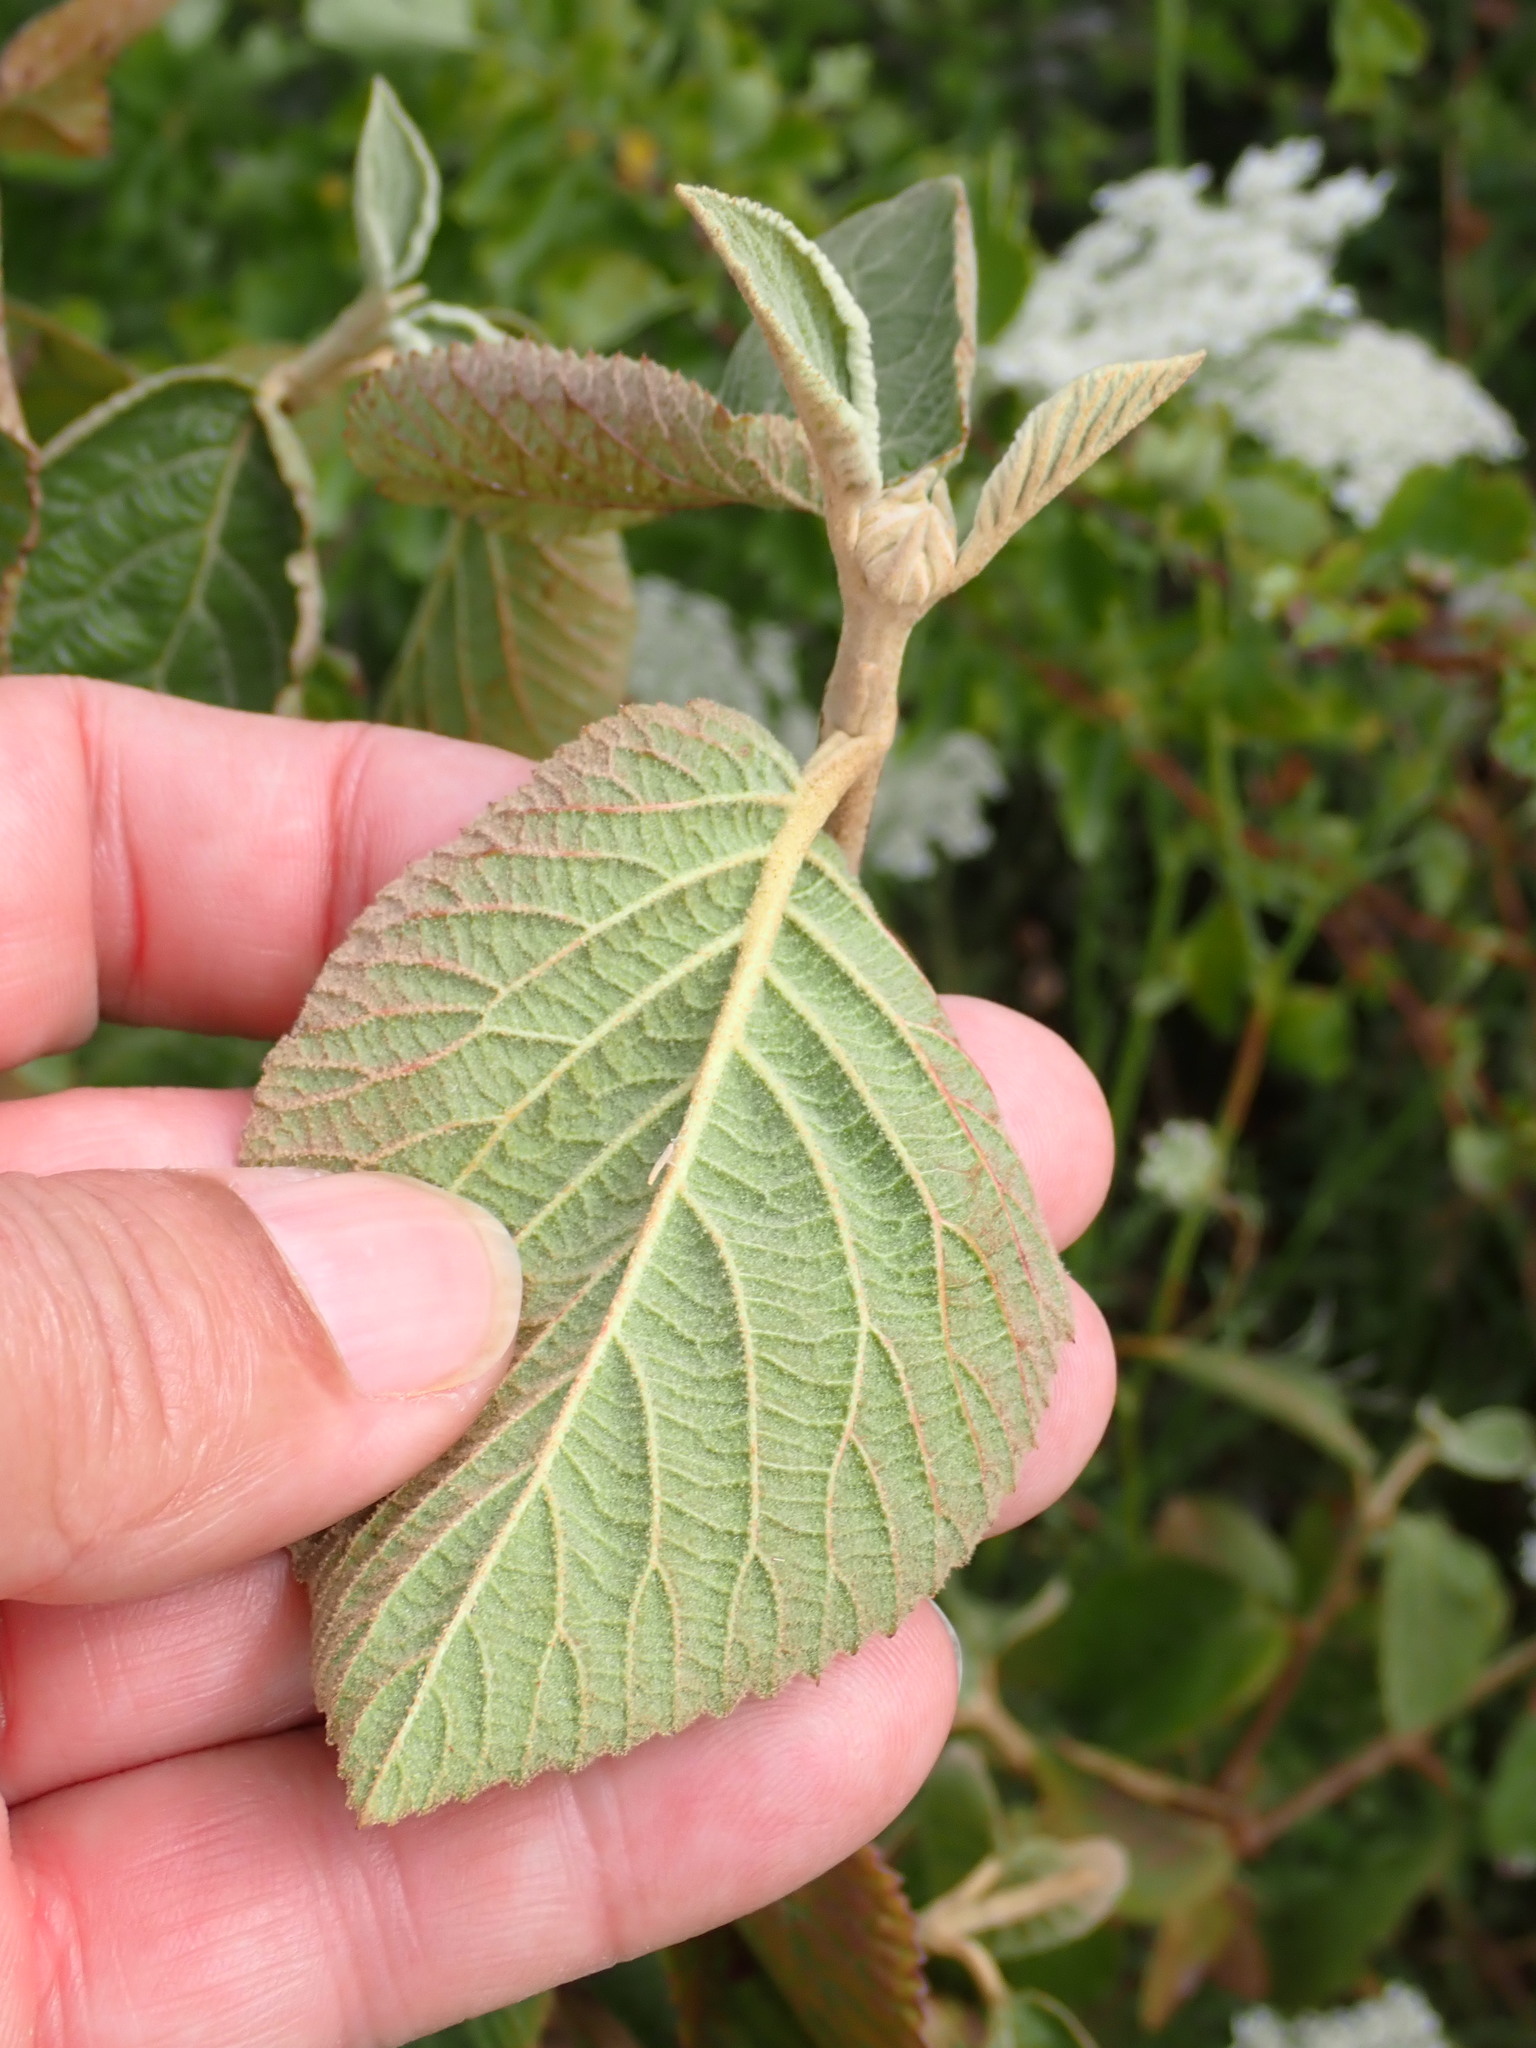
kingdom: Plantae
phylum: Tracheophyta
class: Magnoliopsida
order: Dipsacales
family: Viburnaceae
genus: Viburnum
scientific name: Viburnum lantana
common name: Wayfaring tree
